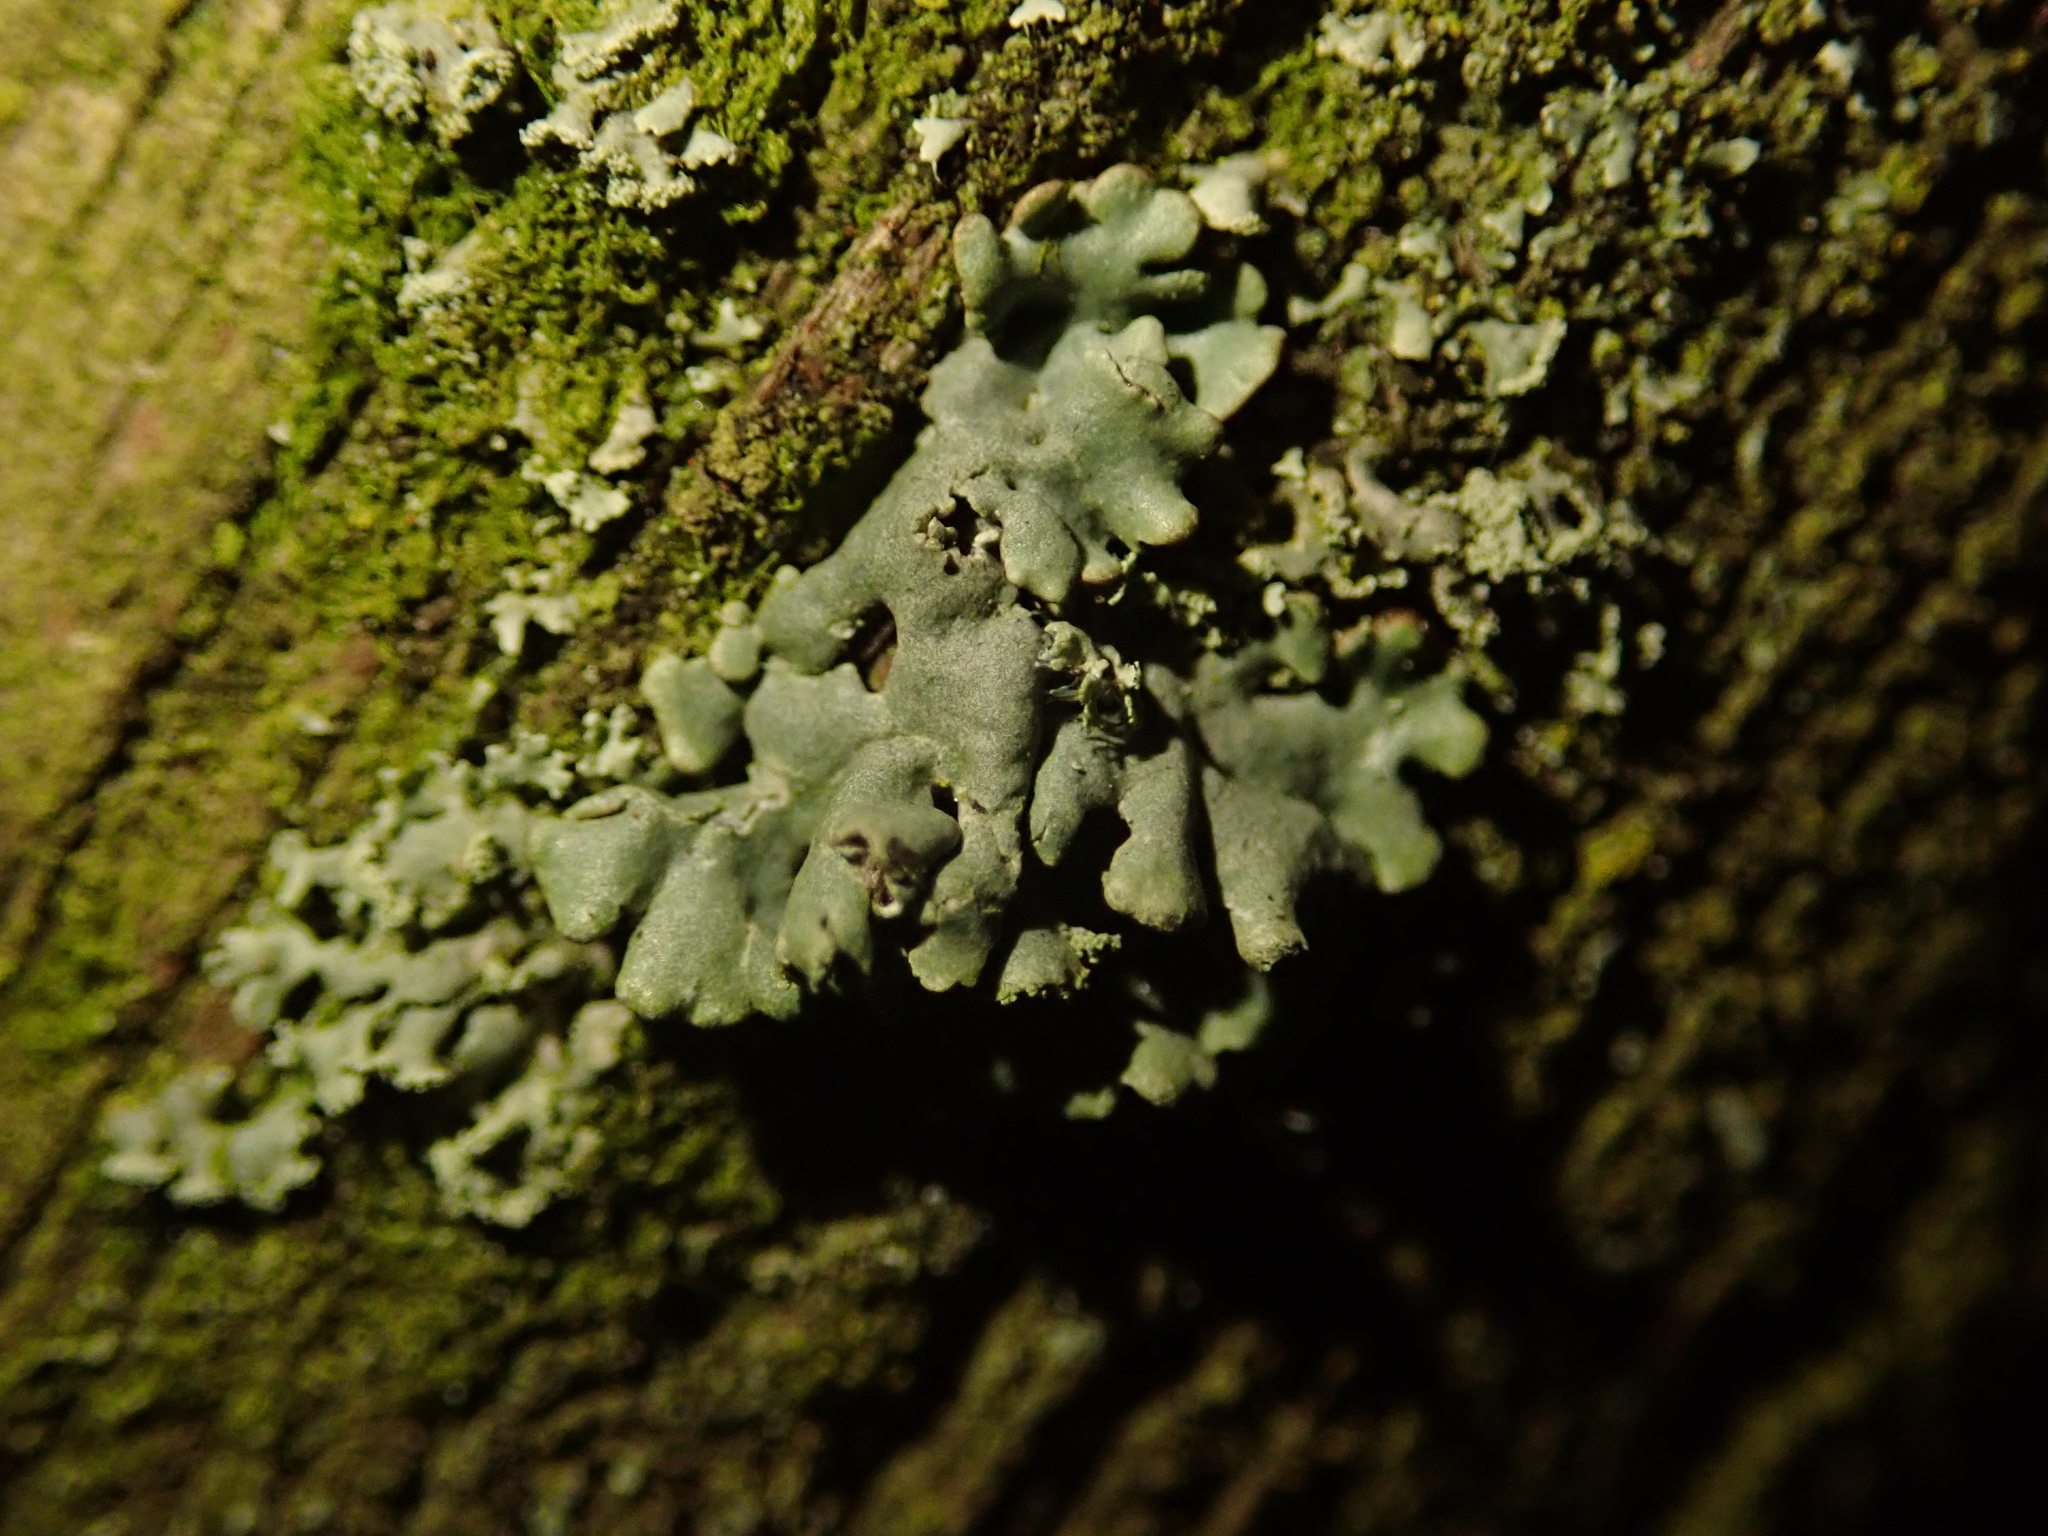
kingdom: Fungi
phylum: Ascomycota
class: Lecanoromycetes
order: Lecanorales
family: Parmeliaceae
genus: Hypogymnia
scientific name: Hypogymnia physodes
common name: Dark crottle
